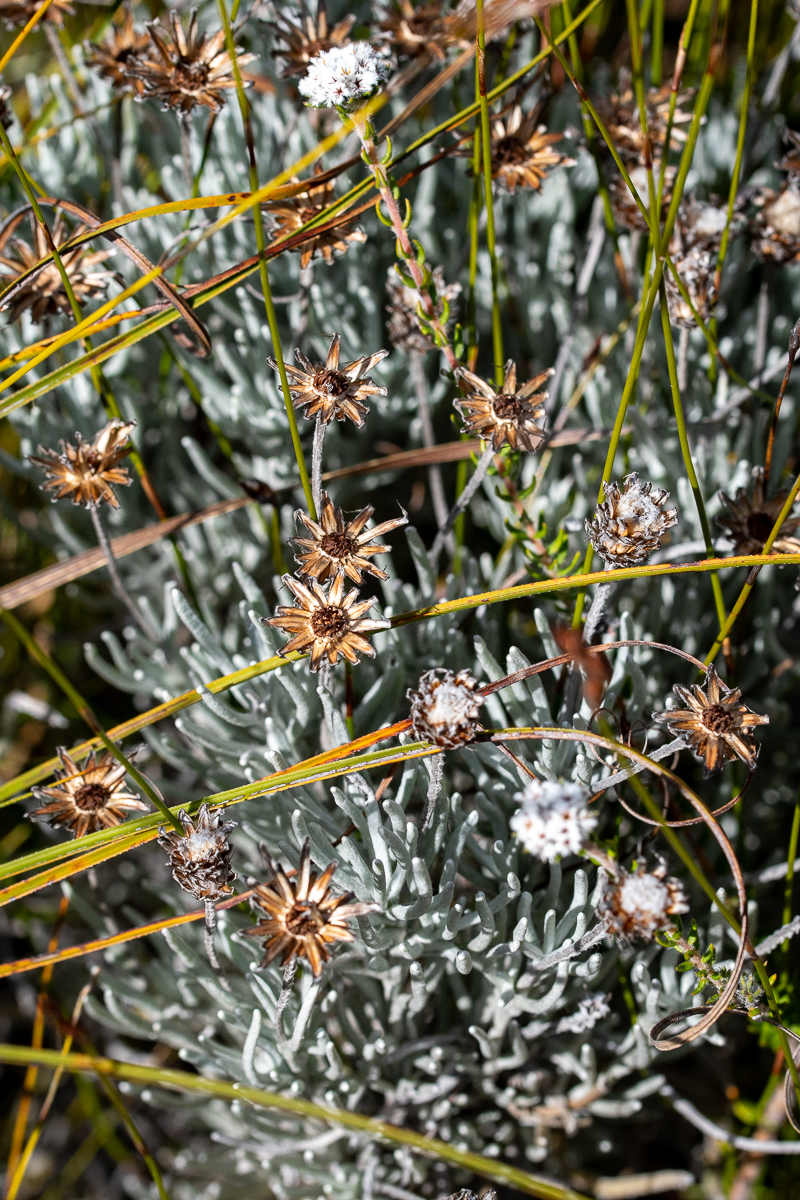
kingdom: Plantae
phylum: Tracheophyta
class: Magnoliopsida
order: Asterales
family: Asteraceae
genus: Syncarpha
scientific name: Syncarpha gnaphaloides
